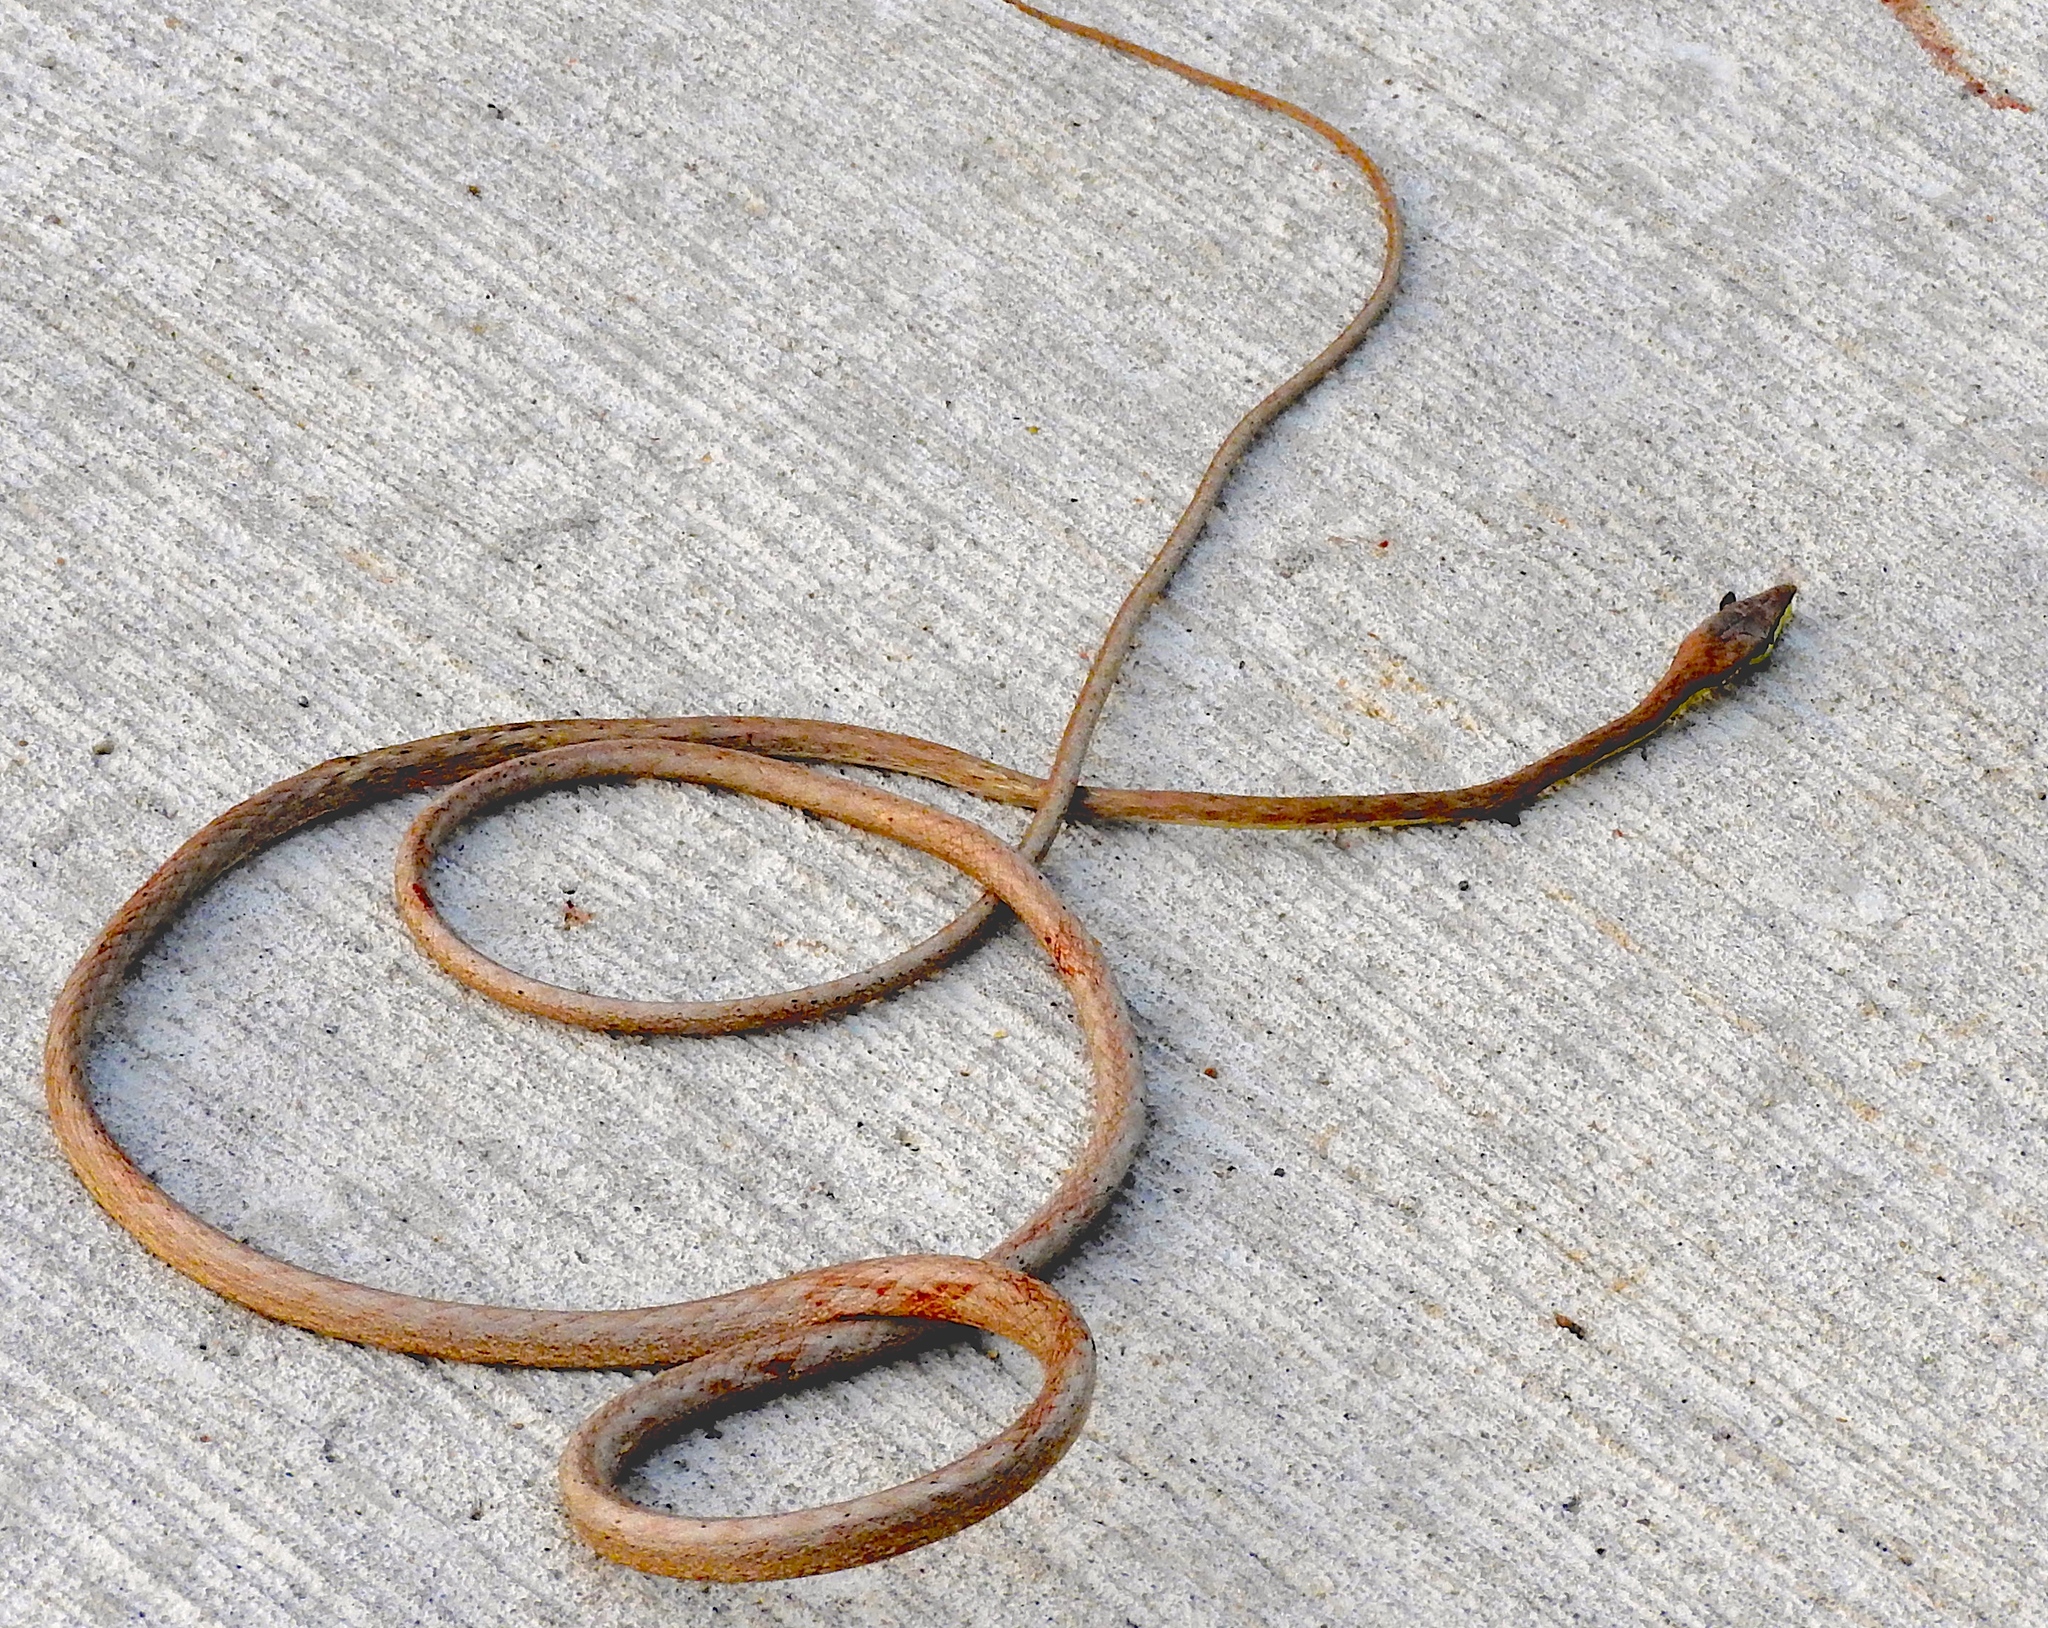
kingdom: Animalia
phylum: Chordata
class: Squamata
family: Colubridae
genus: Oxybelis
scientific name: Oxybelis microphthalmus
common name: Thrornscrub vine snake
